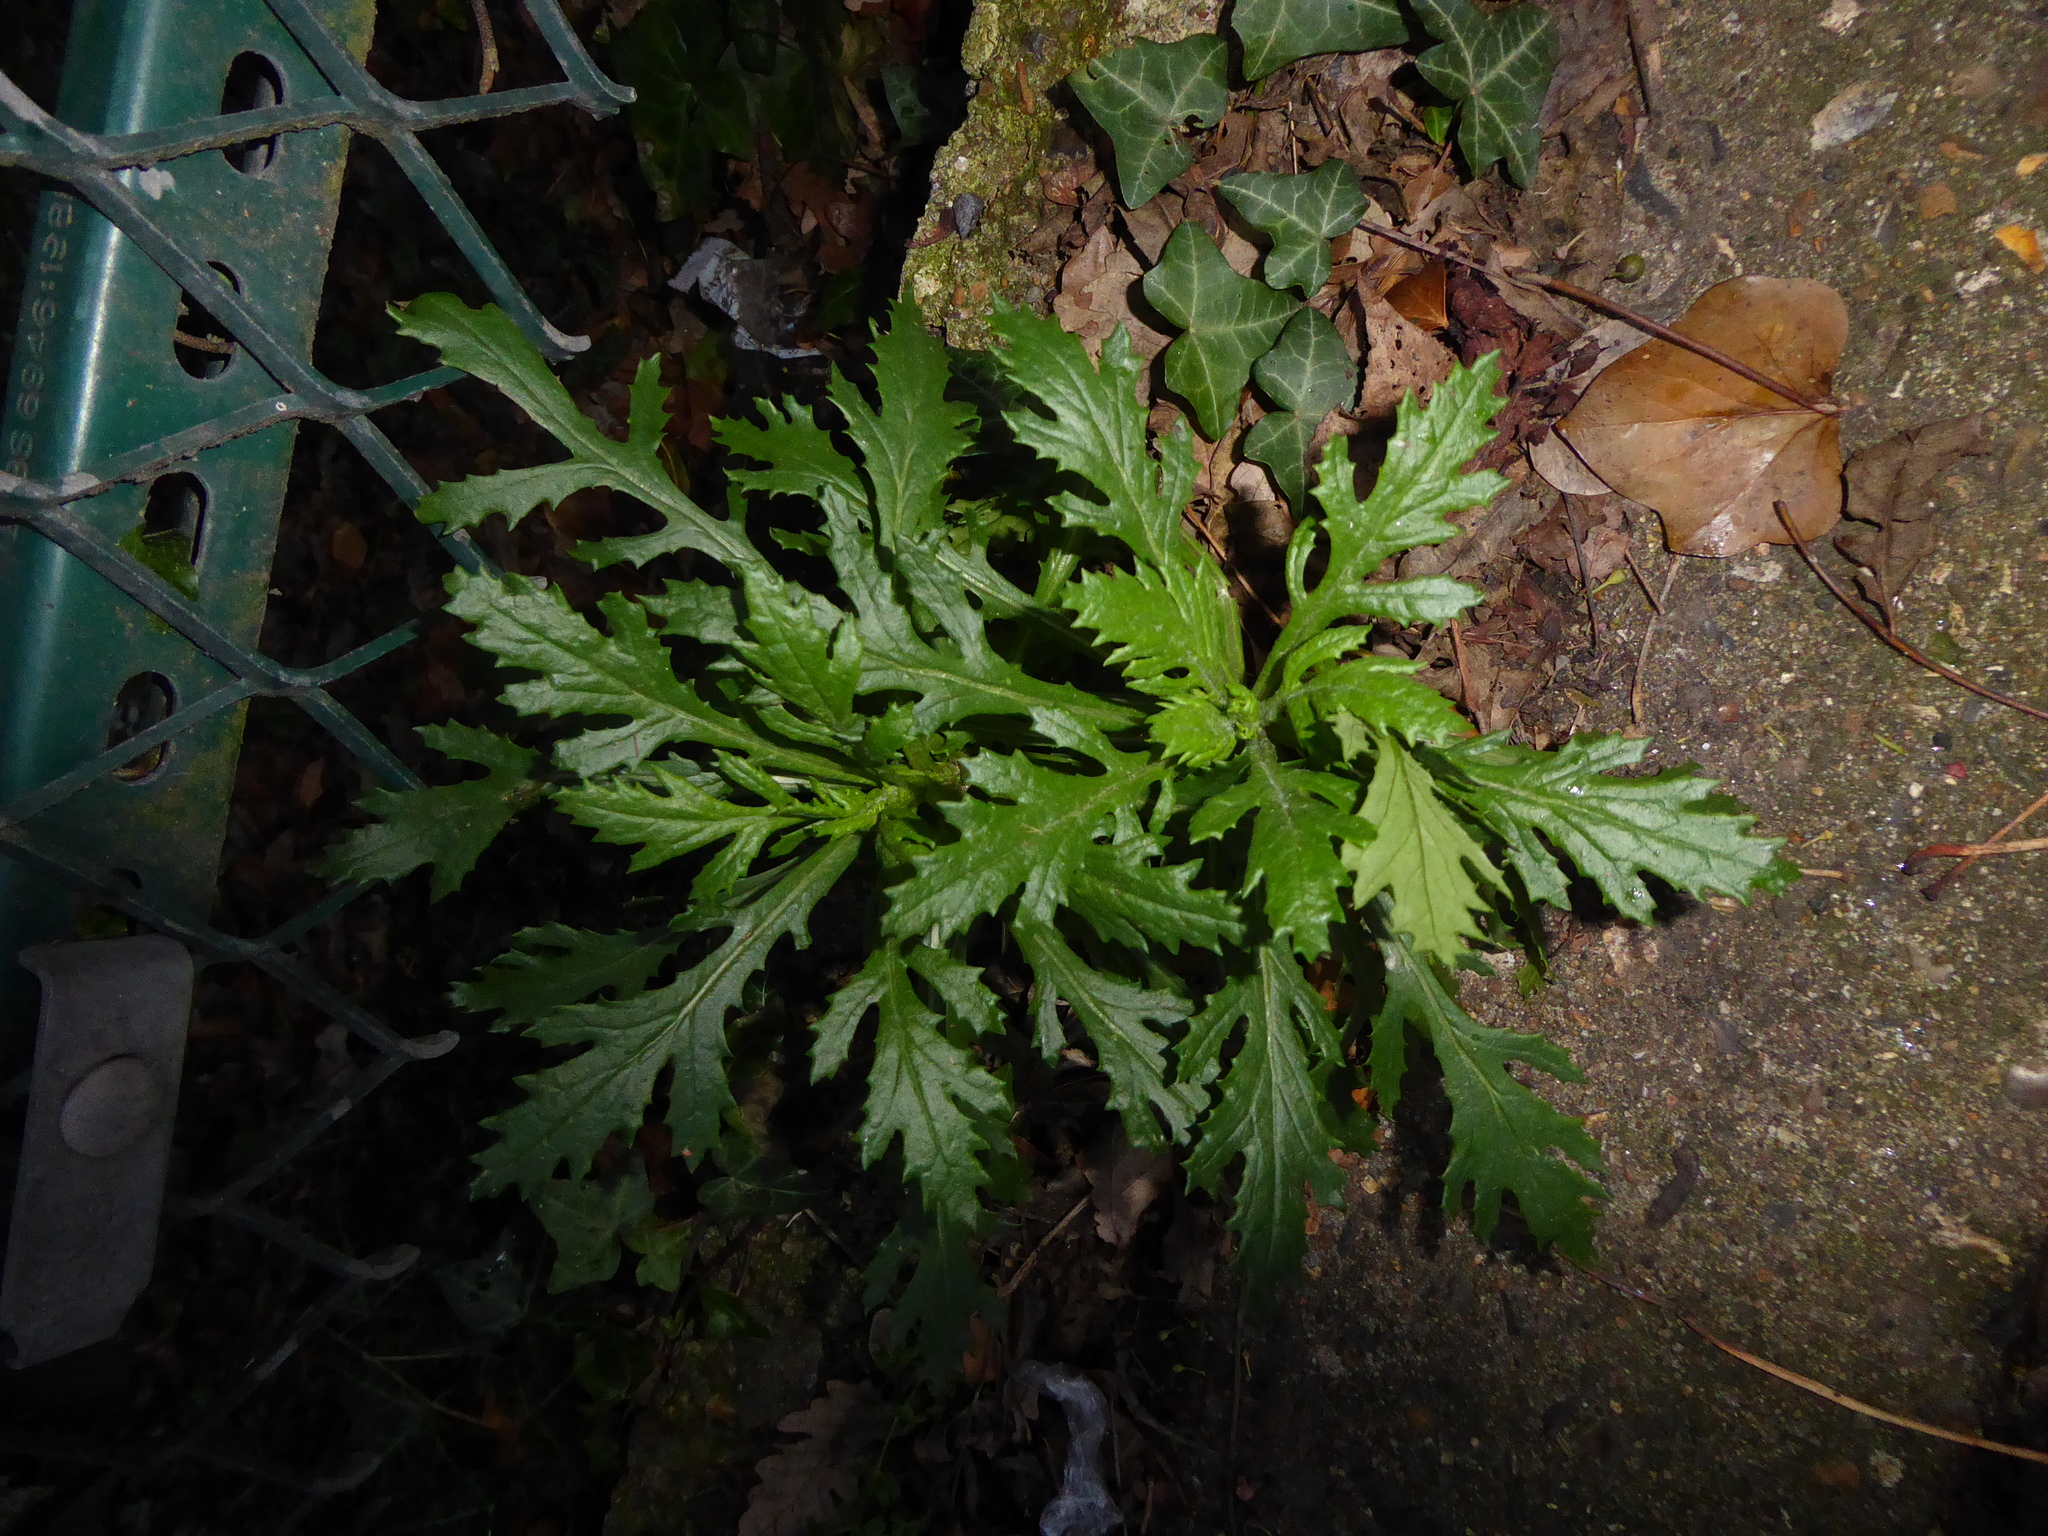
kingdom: Plantae
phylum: Tracheophyta
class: Magnoliopsida
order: Asterales
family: Asteraceae
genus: Senecio
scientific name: Senecio squalidus
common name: Oxford ragwort
